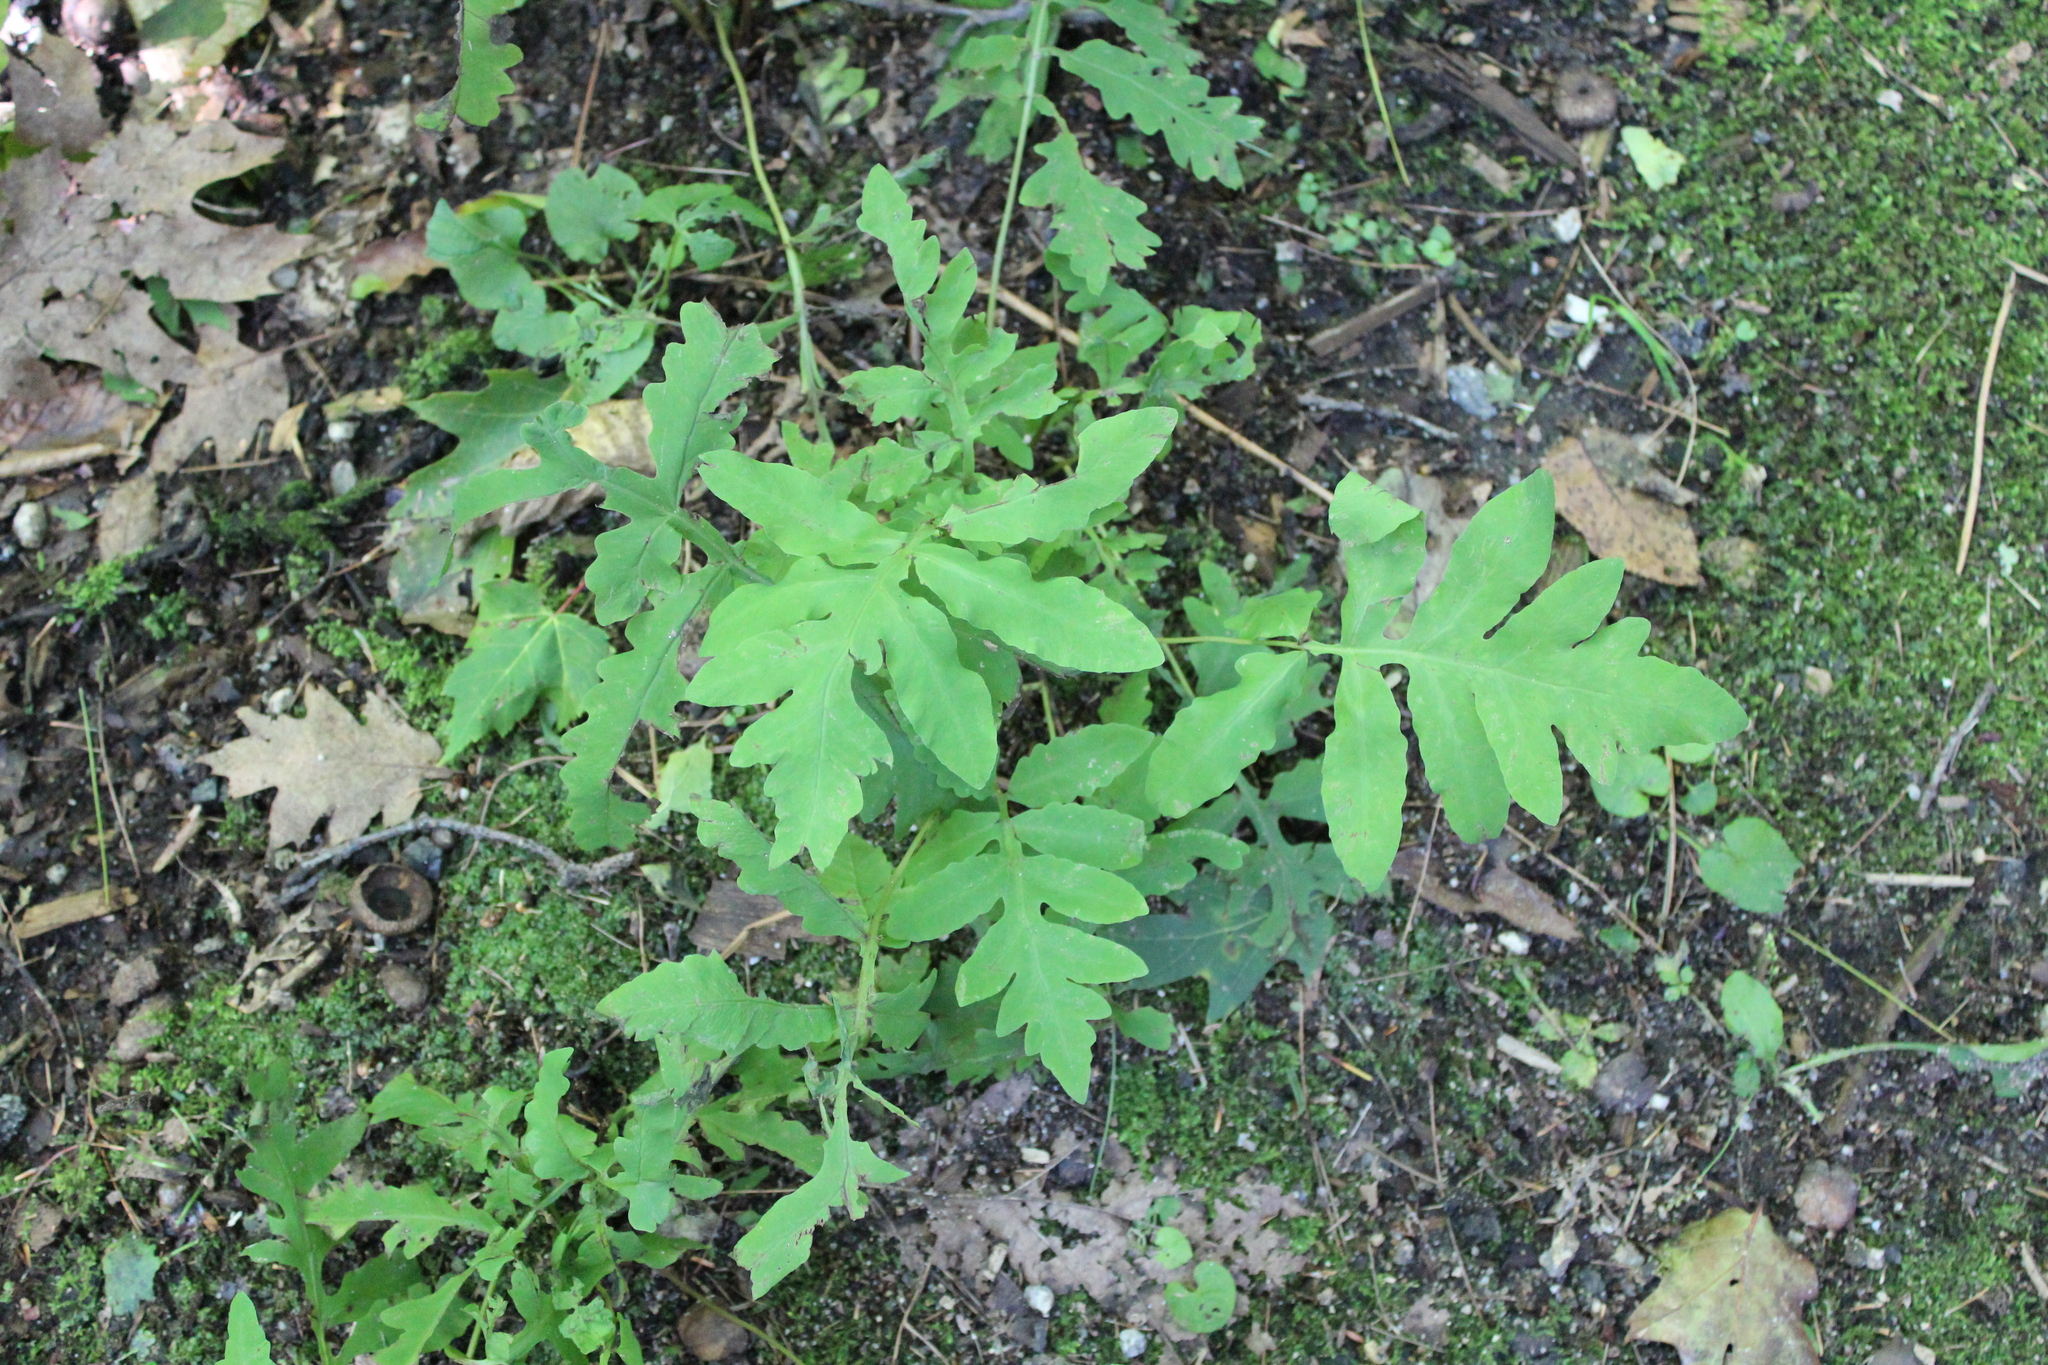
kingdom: Plantae
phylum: Tracheophyta
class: Polypodiopsida
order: Polypodiales
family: Onocleaceae
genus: Onoclea
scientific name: Onoclea sensibilis
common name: Sensitive fern
